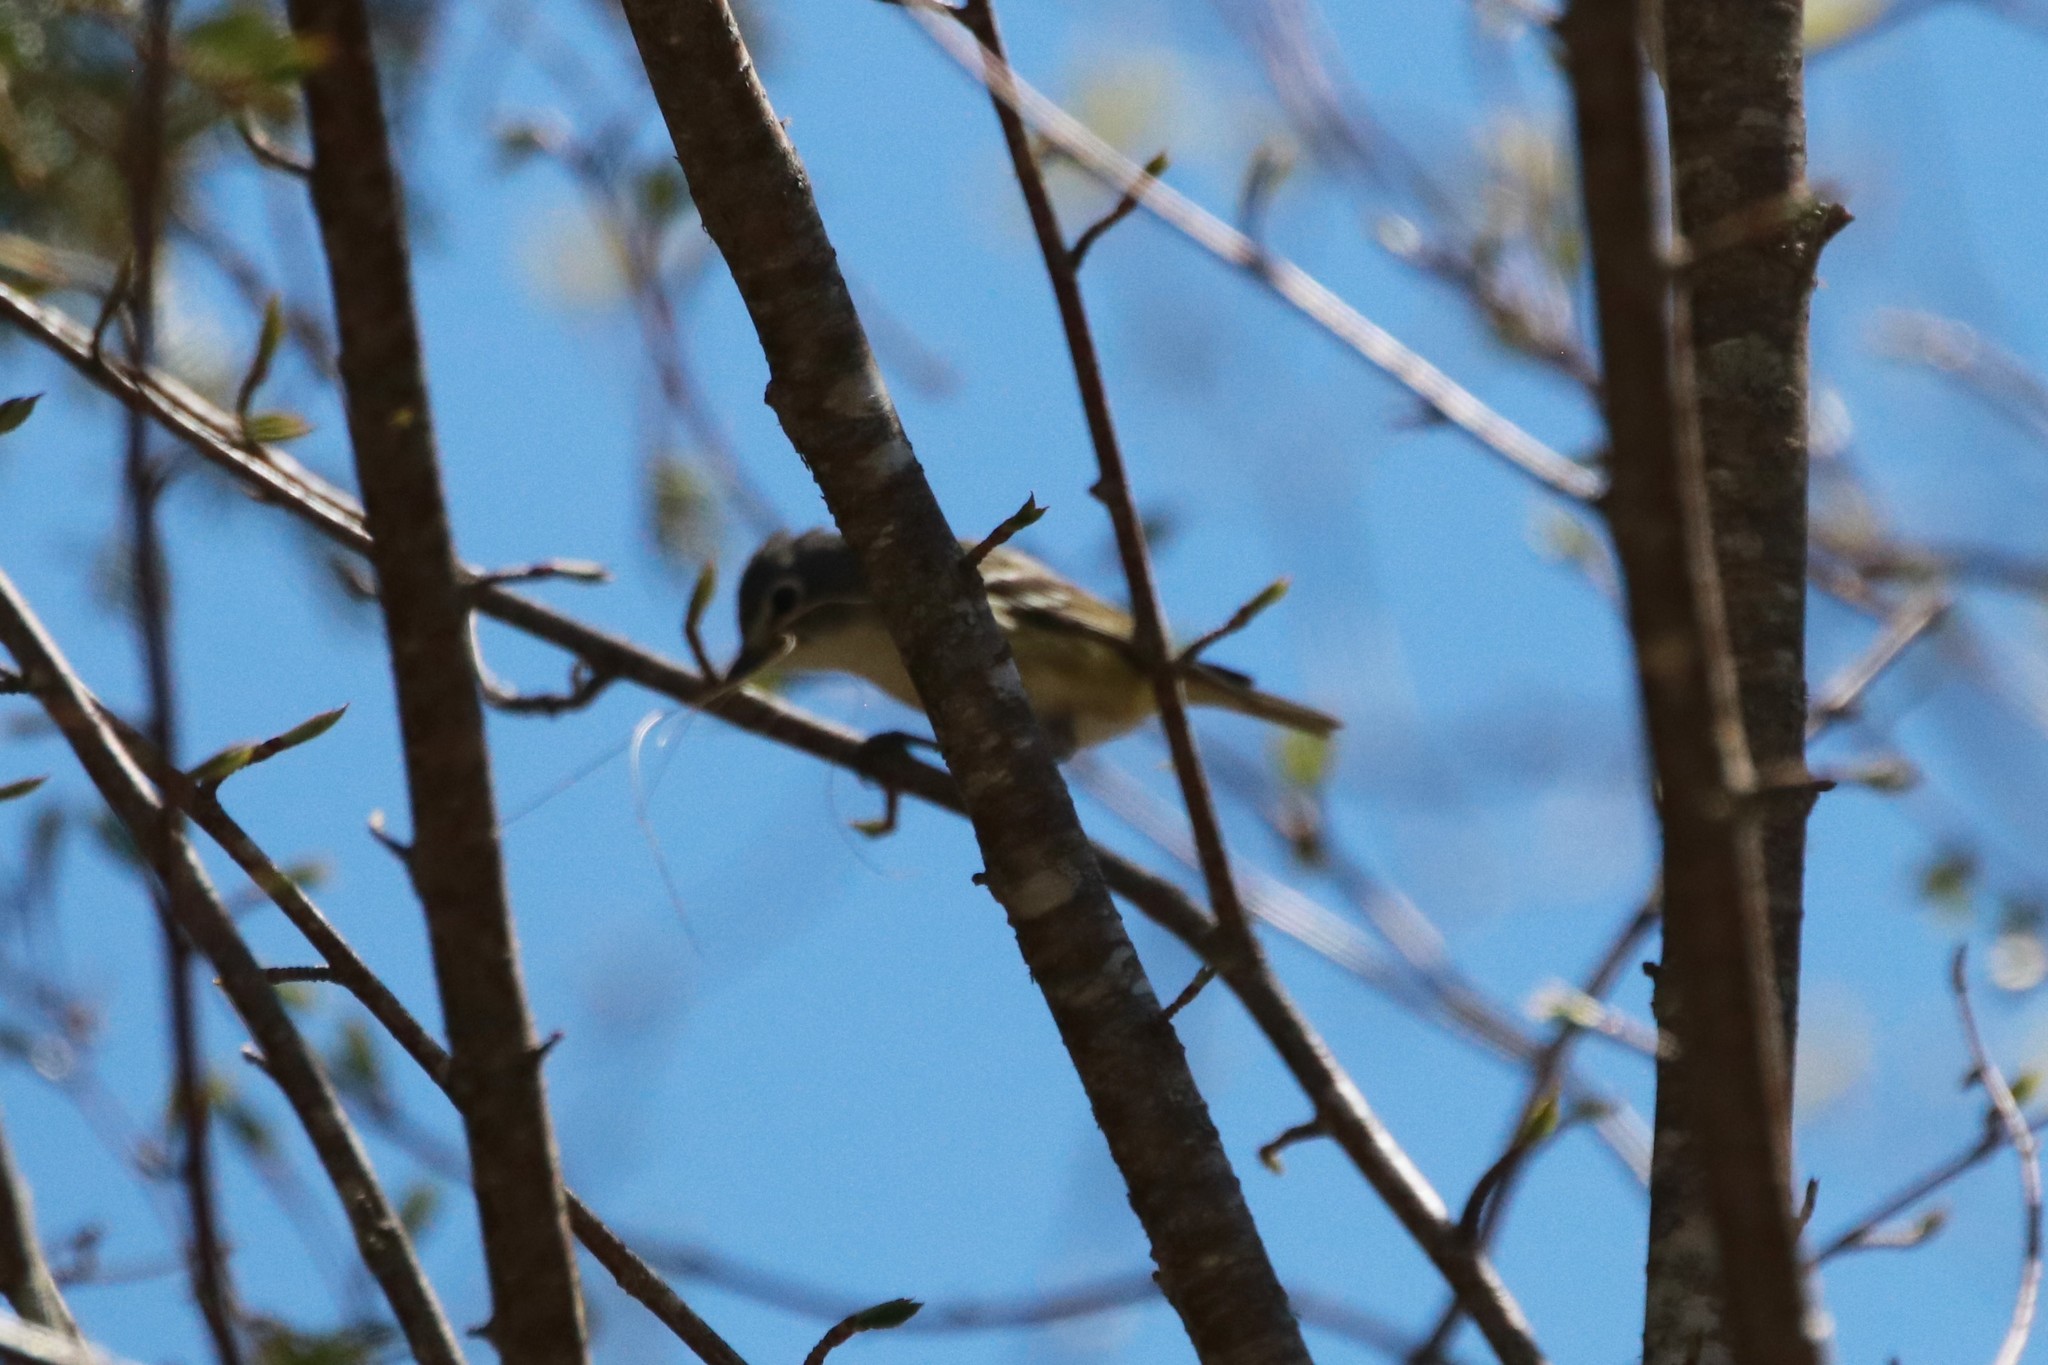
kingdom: Animalia
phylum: Chordata
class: Aves
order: Passeriformes
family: Vireonidae
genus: Vireo
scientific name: Vireo solitarius
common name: Blue-headed vireo
